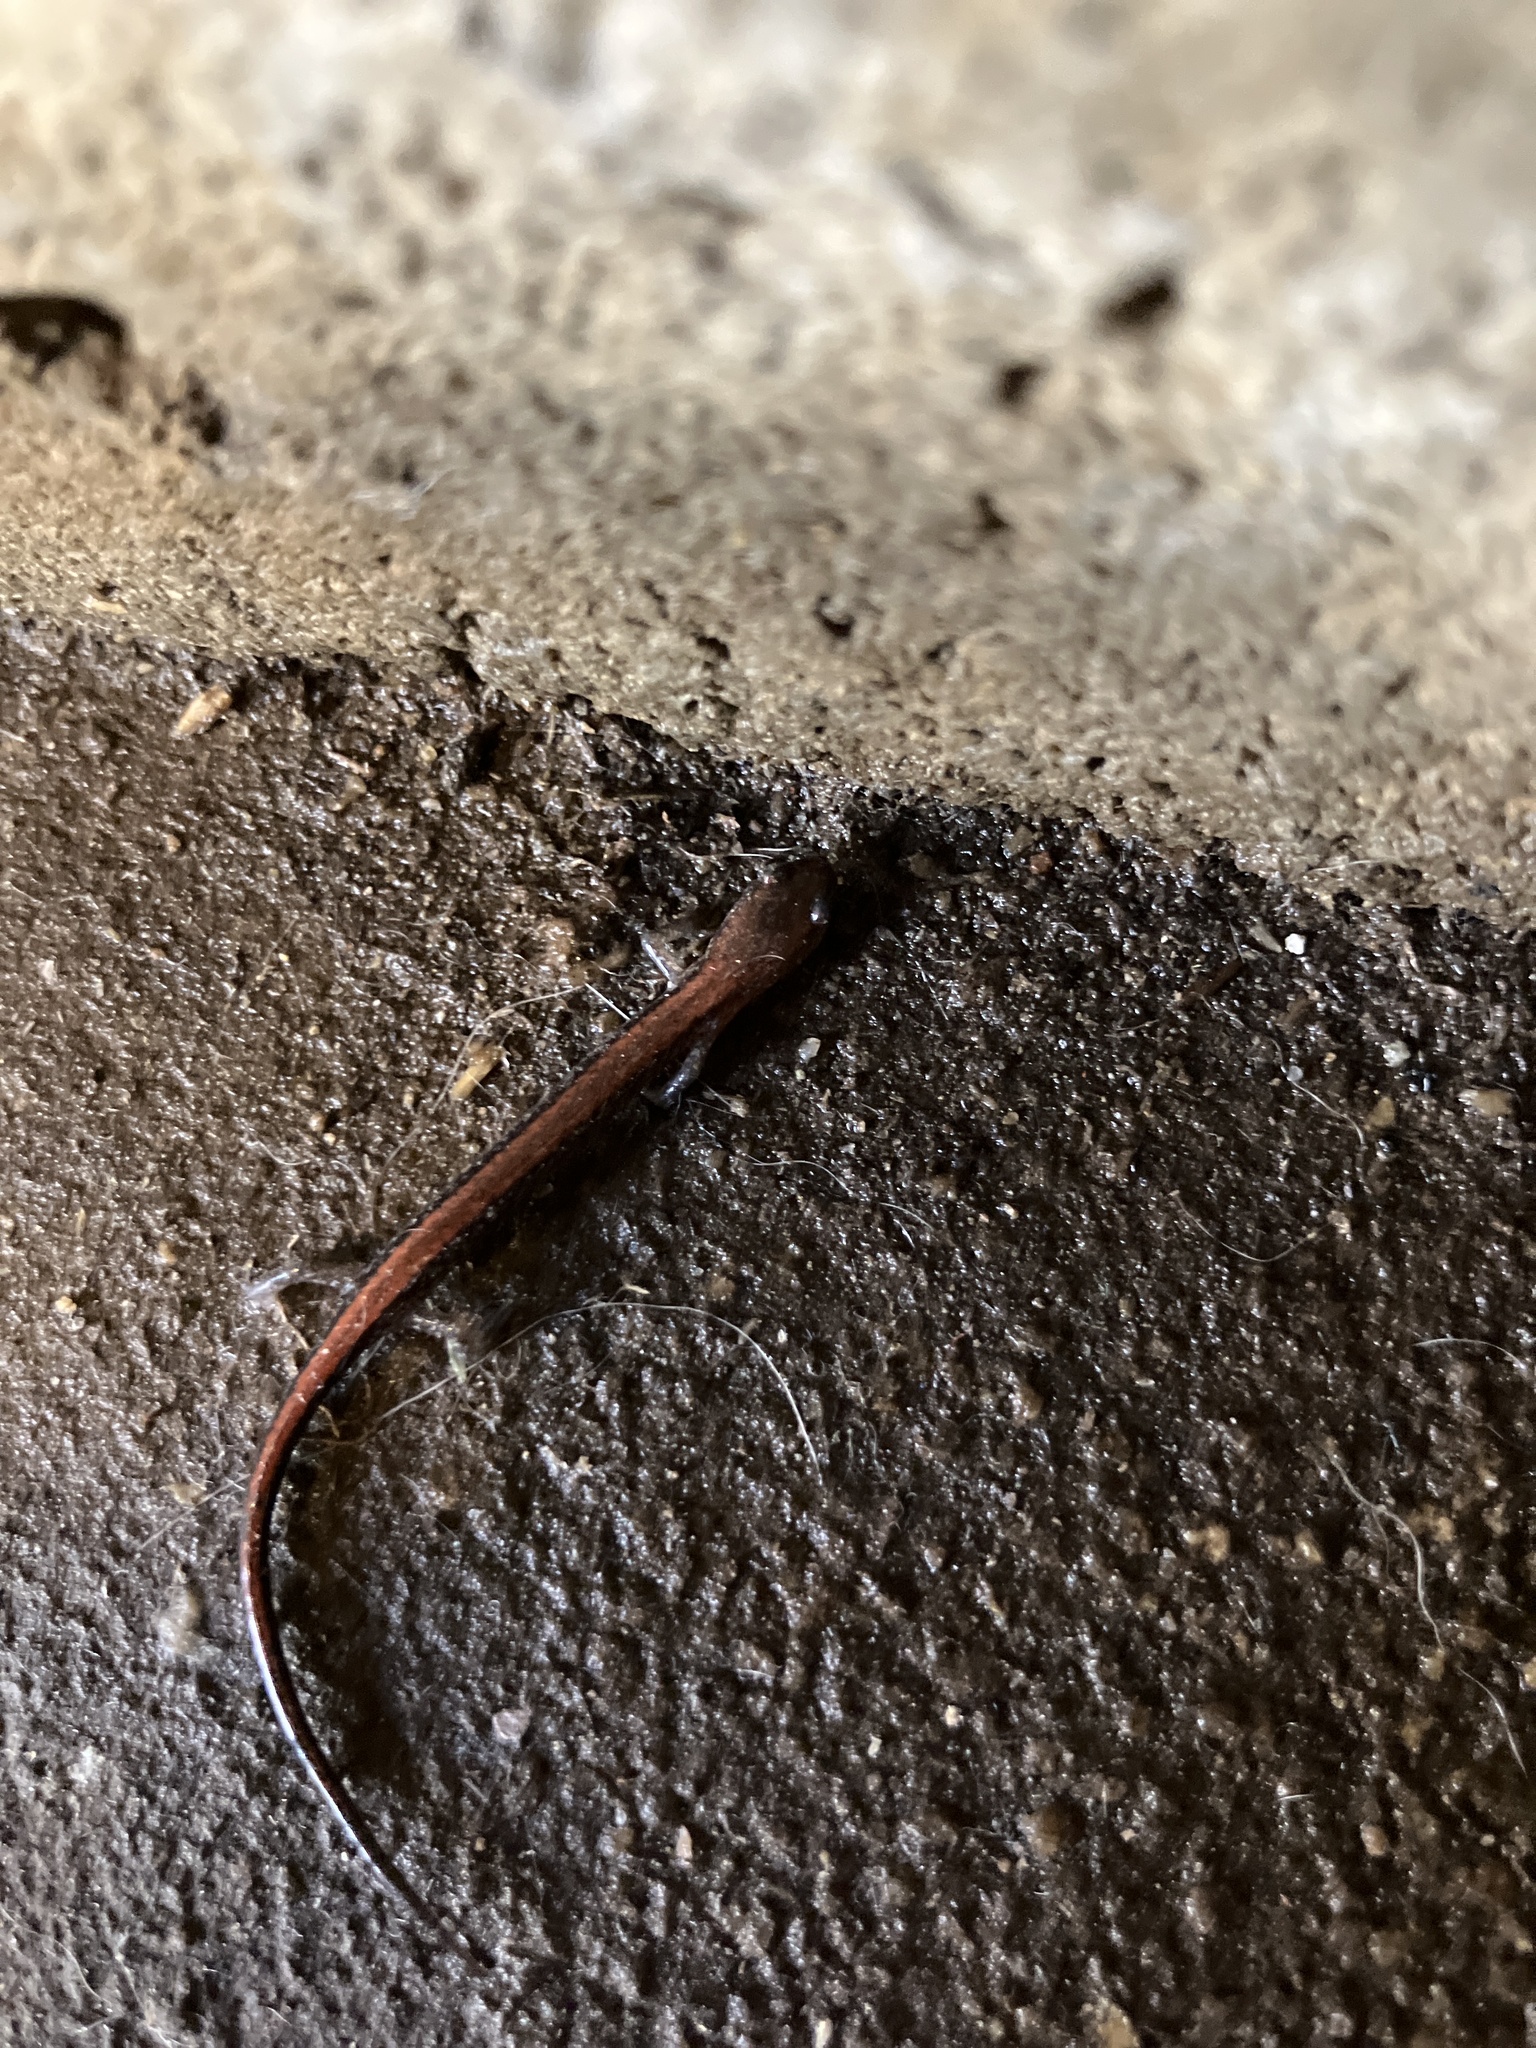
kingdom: Animalia
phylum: Chordata
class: Amphibia
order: Caudata
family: Plethodontidae
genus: Plethodon
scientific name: Plethodon cinereus
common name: Redback salamander
